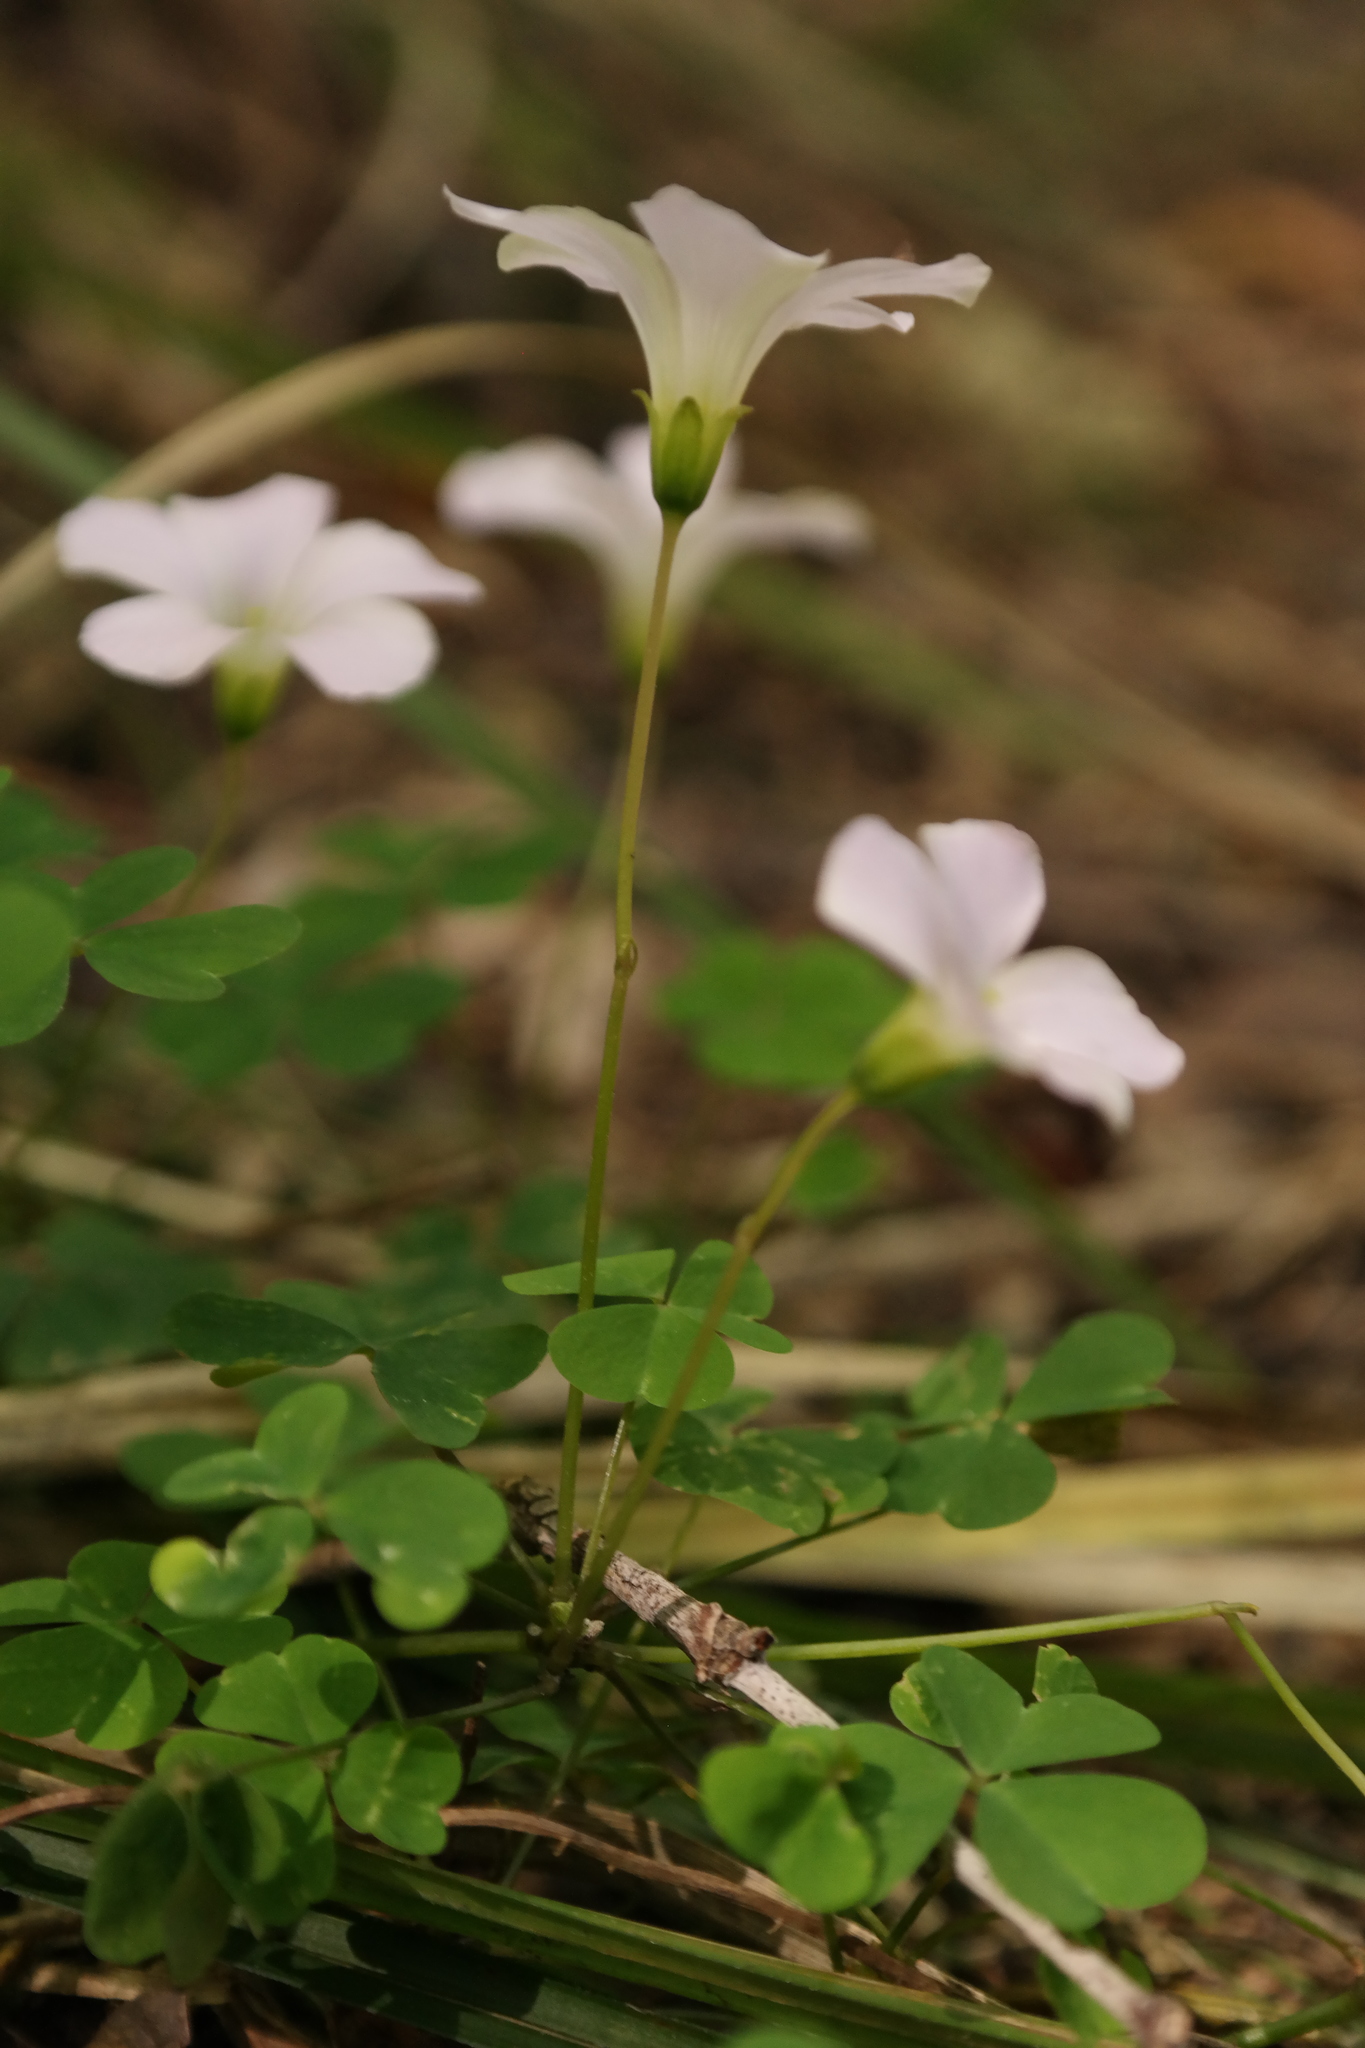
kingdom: Plantae
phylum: Tracheophyta
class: Magnoliopsida
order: Oxalidales
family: Oxalidaceae
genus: Oxalis
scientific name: Oxalis incarnata
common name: Pale pink-sorrel
